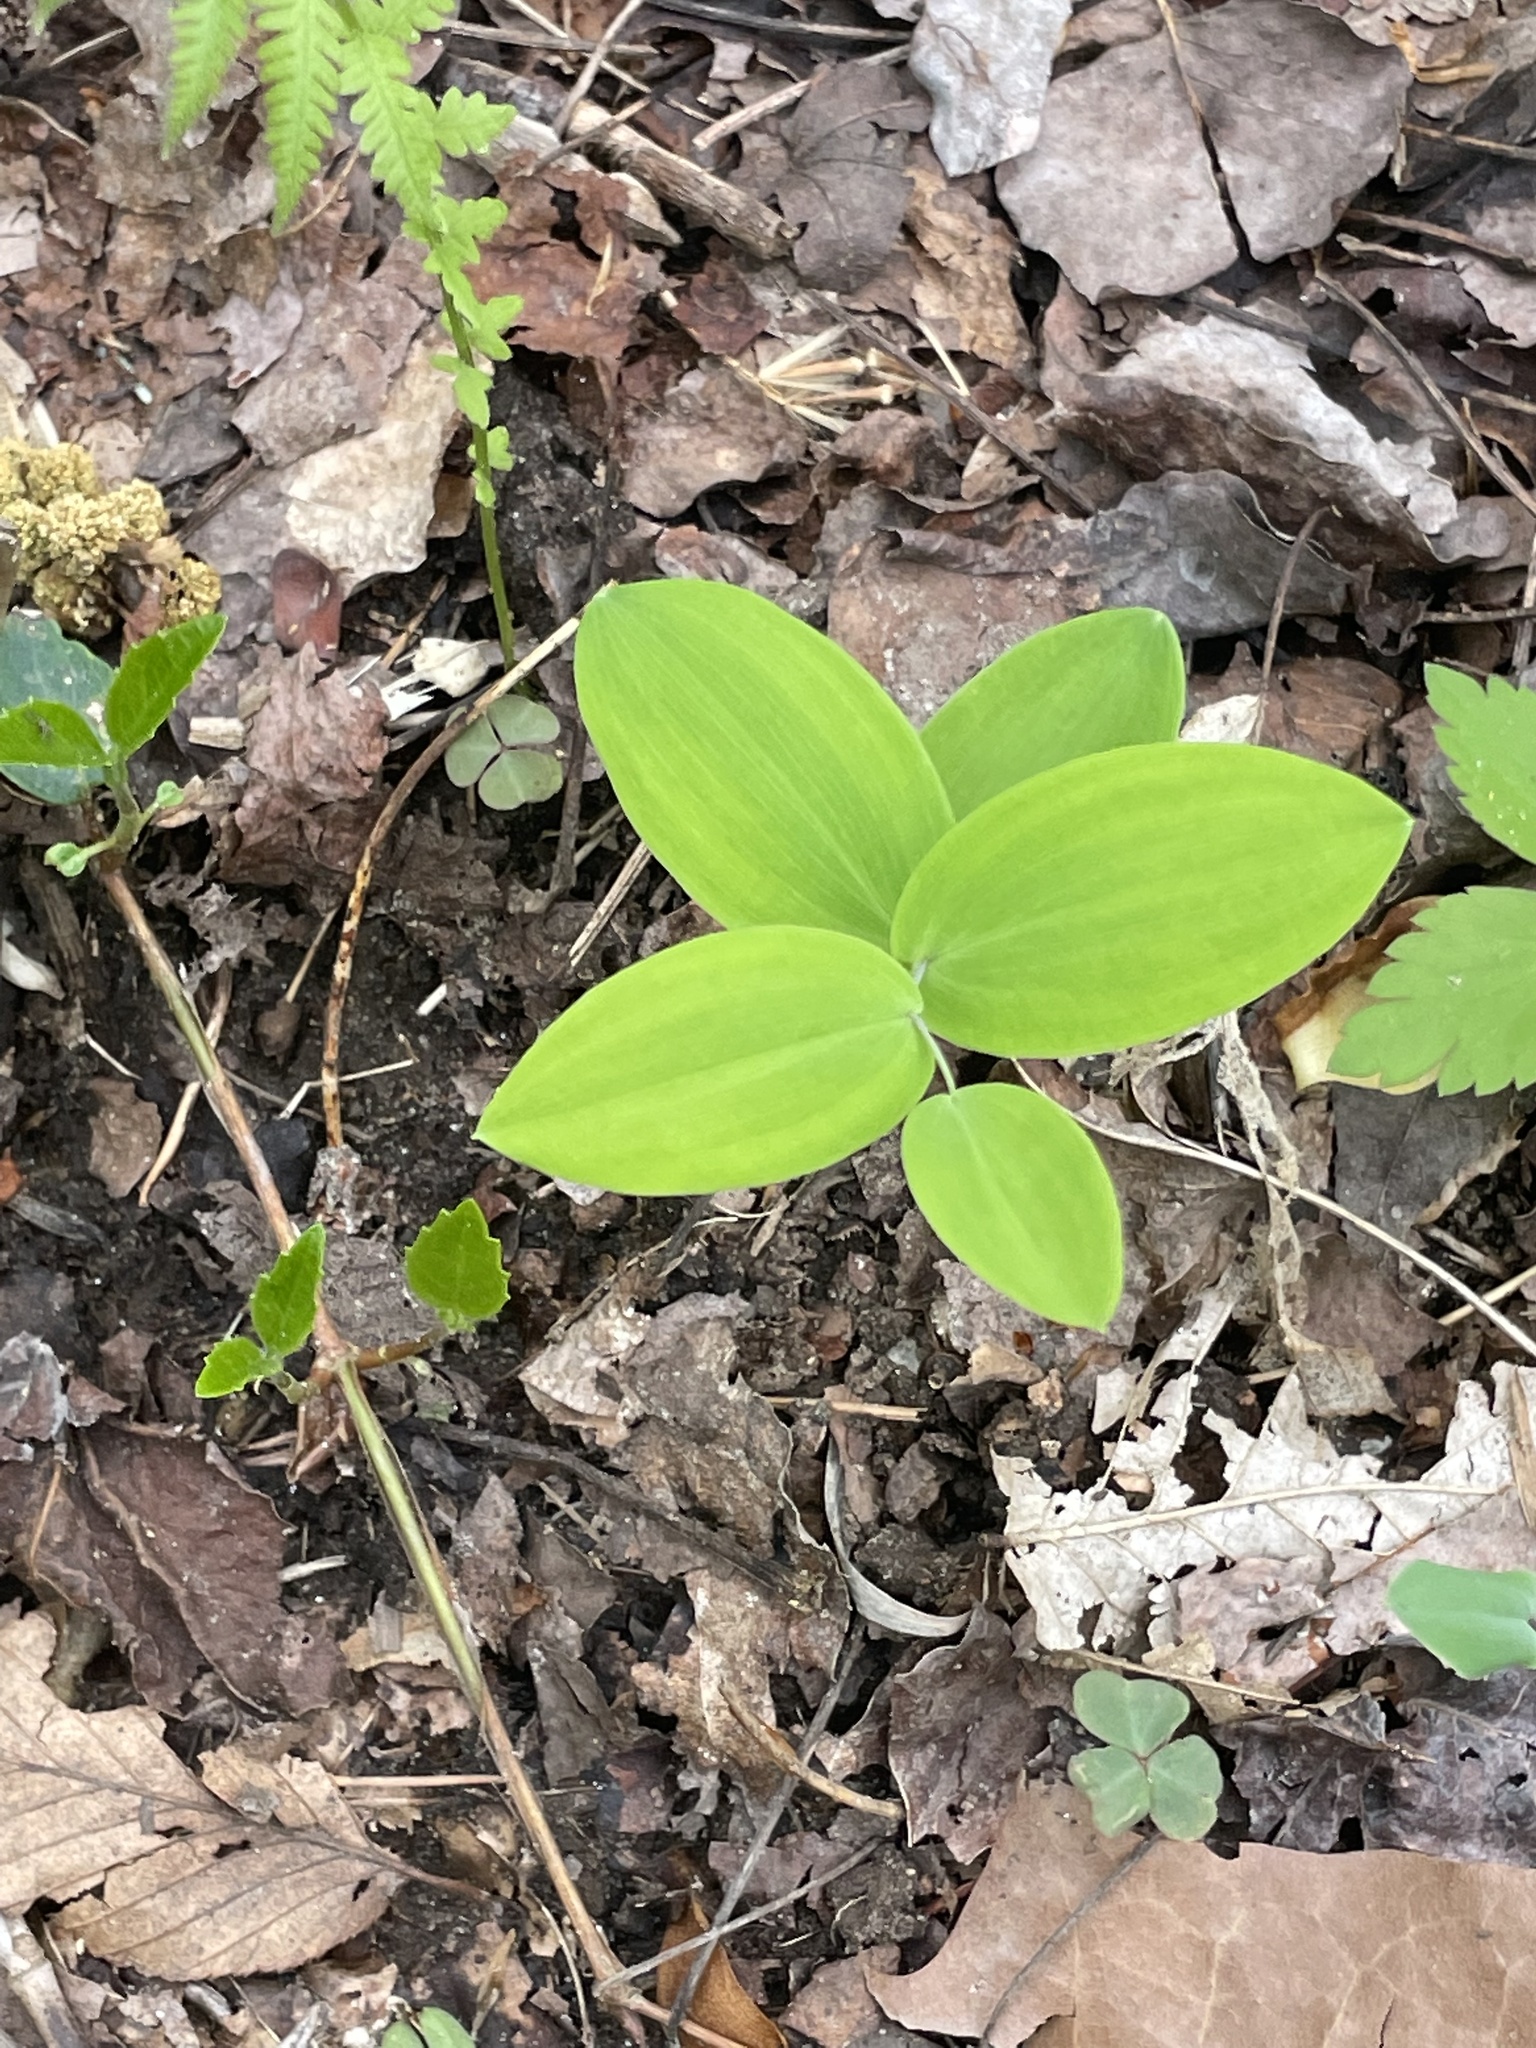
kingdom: Plantae
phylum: Tracheophyta
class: Liliopsida
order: Liliales
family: Colchicaceae
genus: Uvularia
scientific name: Uvularia perfoliata
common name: Perfoliate bellwort
